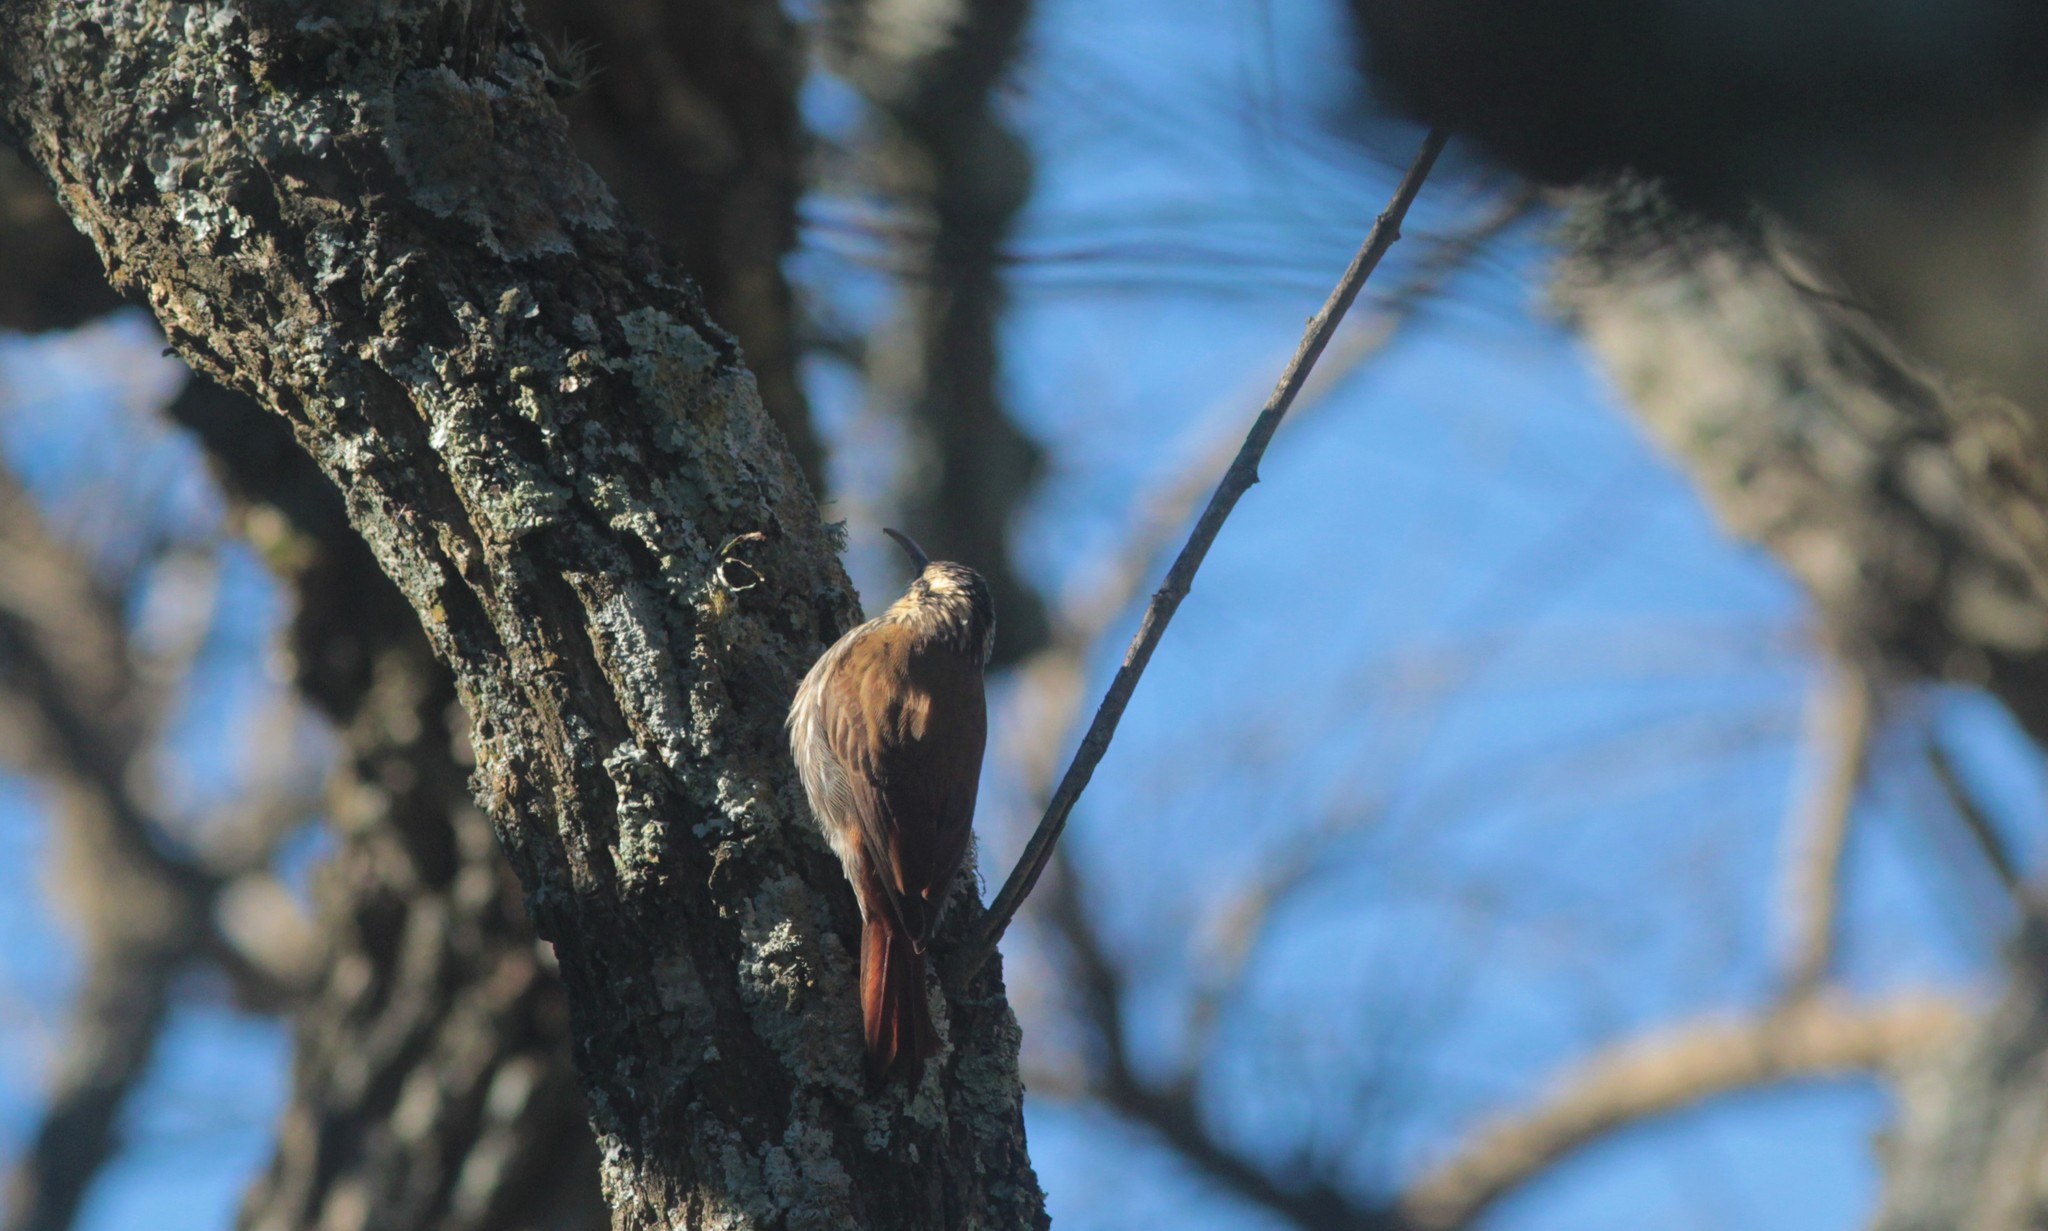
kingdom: Animalia
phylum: Chordata
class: Aves
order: Passeriformes
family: Furnariidae
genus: Lepidocolaptes
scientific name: Lepidocolaptes angustirostris
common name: Narrow-billed woodcreeper
